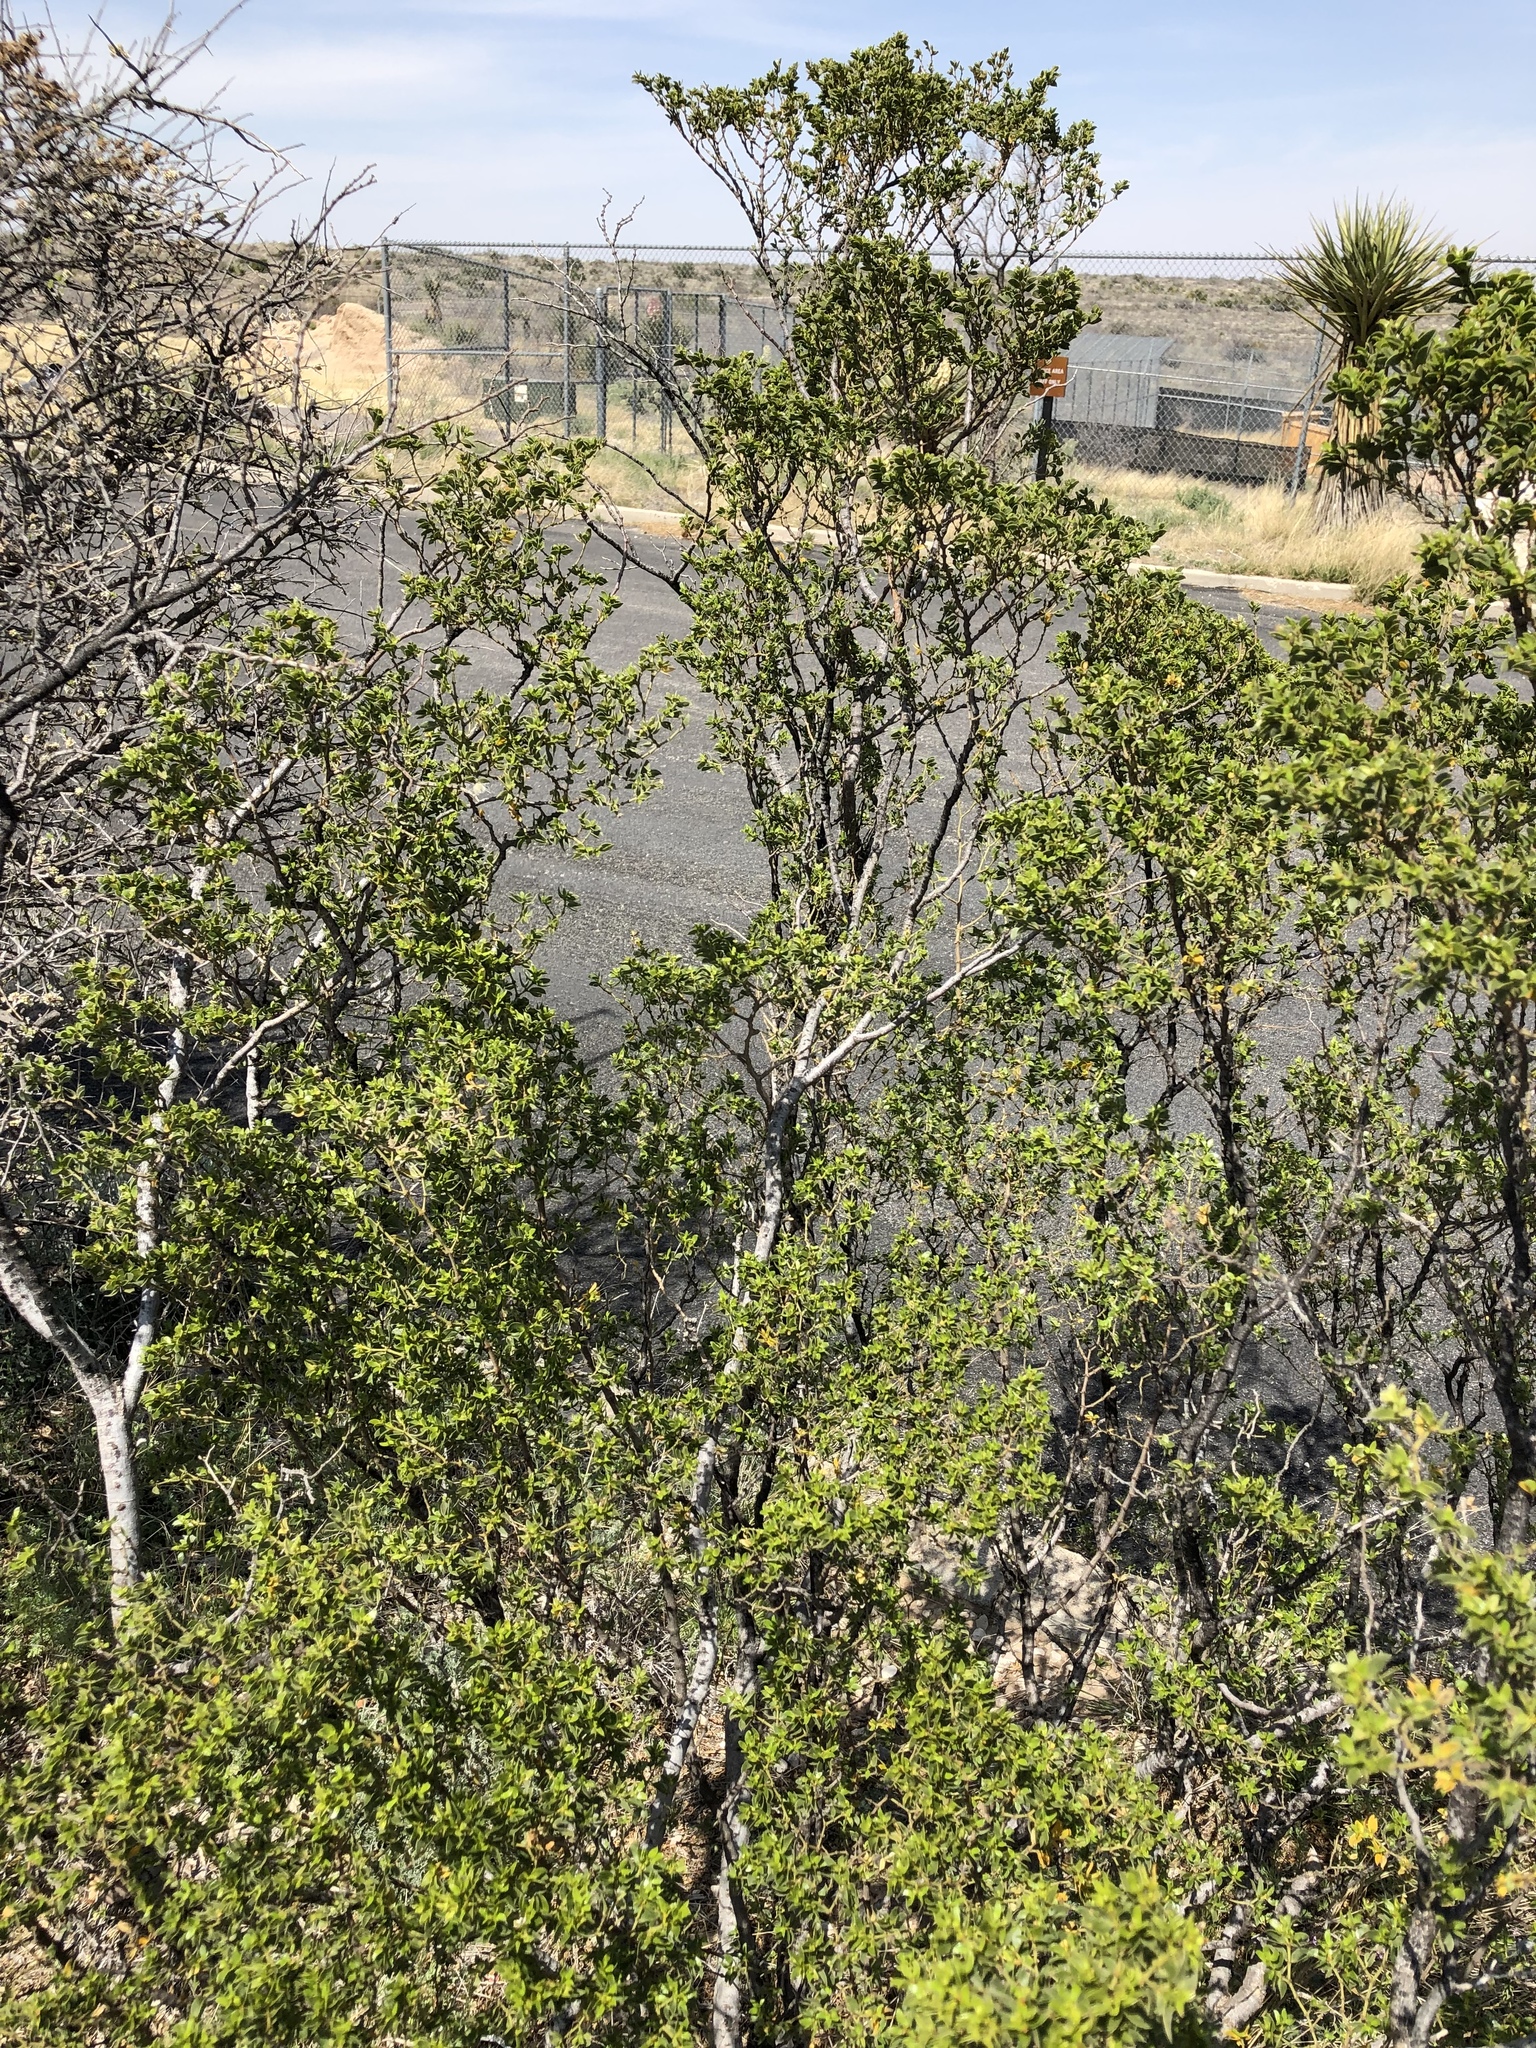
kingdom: Plantae
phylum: Tracheophyta
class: Magnoliopsida
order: Zygophyllales
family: Zygophyllaceae
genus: Larrea
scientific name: Larrea tridentata
